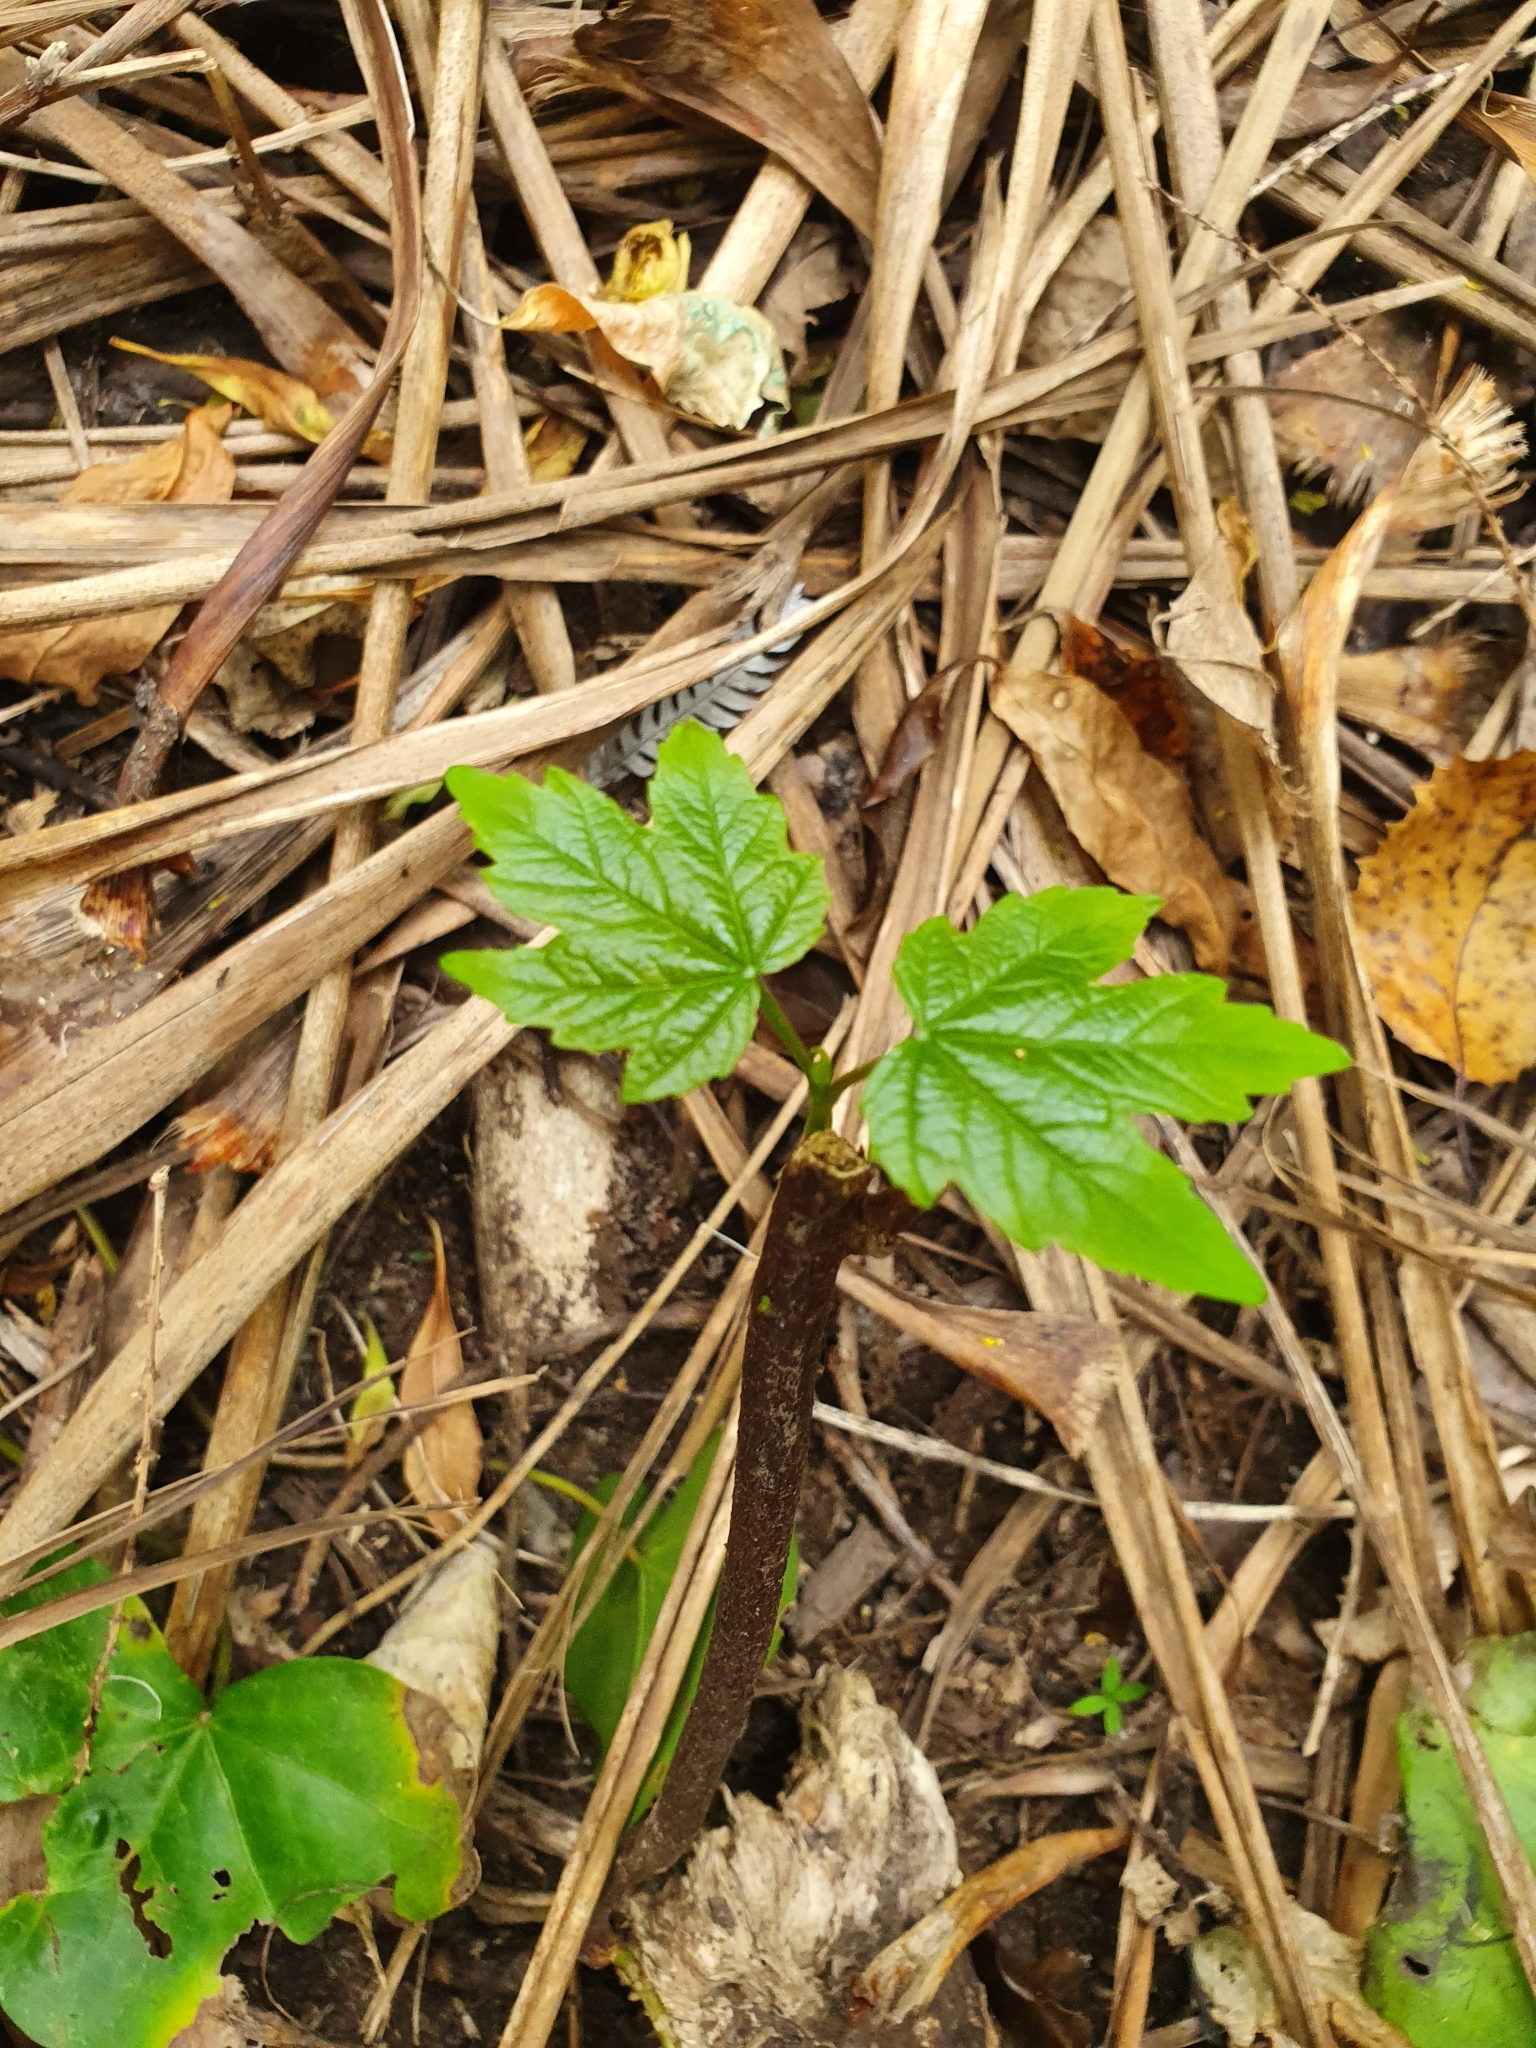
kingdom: Plantae
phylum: Tracheophyta
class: Magnoliopsida
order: Sapindales
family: Sapindaceae
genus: Acer
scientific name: Acer pseudoplatanus
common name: Sycamore
